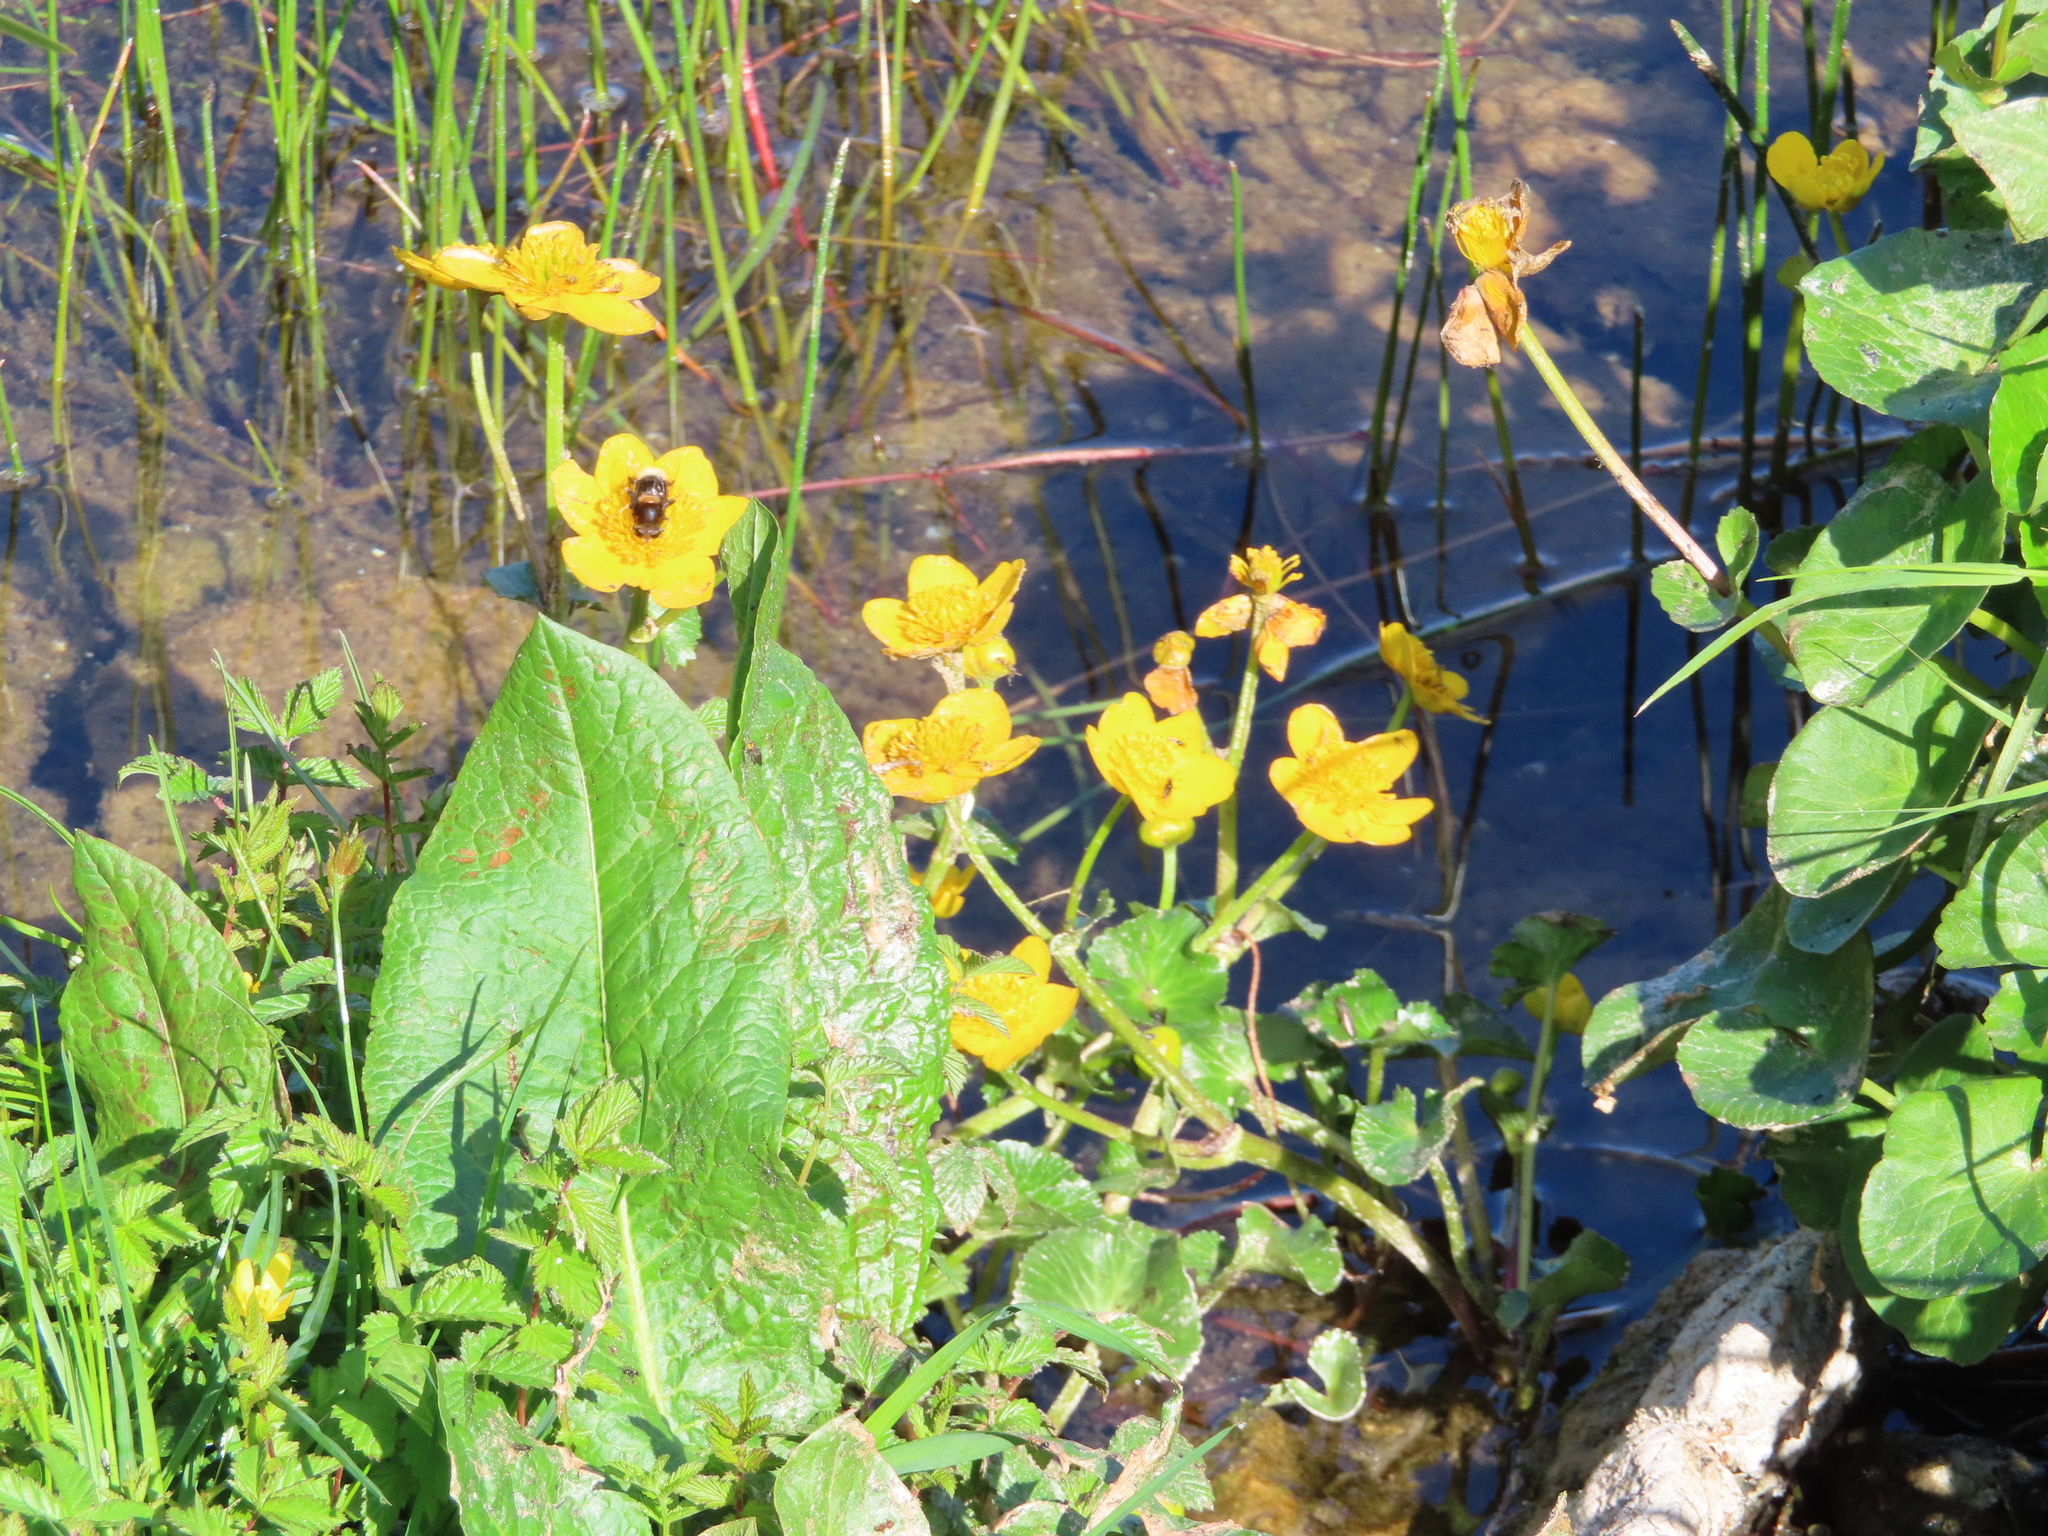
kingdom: Plantae
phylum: Tracheophyta
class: Magnoliopsida
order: Ranunculales
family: Ranunculaceae
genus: Caltha
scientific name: Caltha palustris
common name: Marsh marigold
